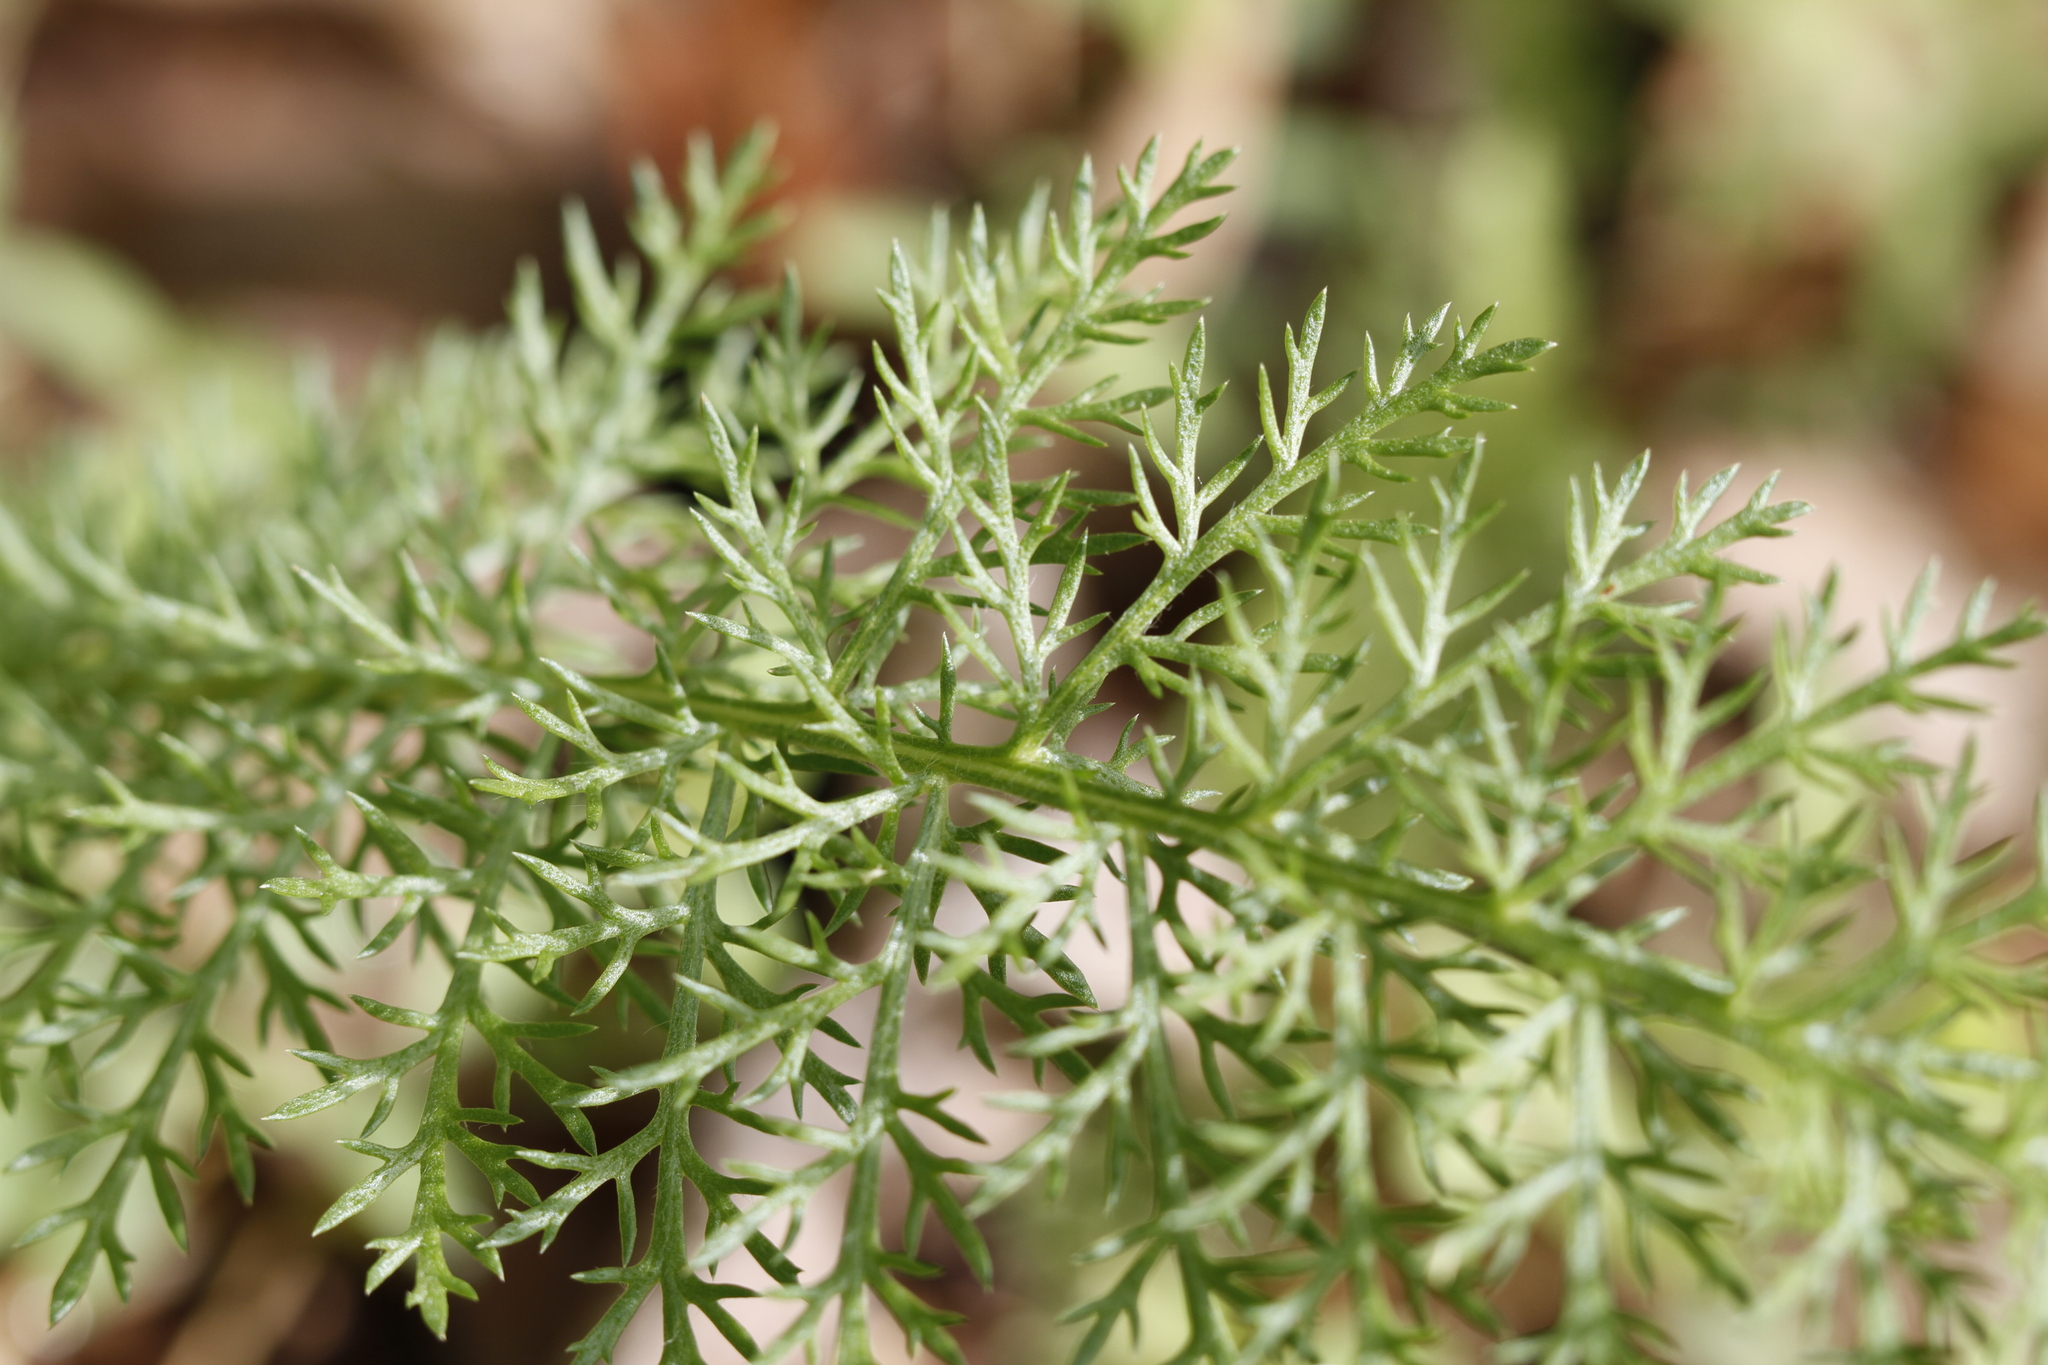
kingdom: Plantae
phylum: Tracheophyta
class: Magnoliopsida
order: Asterales
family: Asteraceae
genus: Achillea
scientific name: Achillea millefolium
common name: Yarrow
